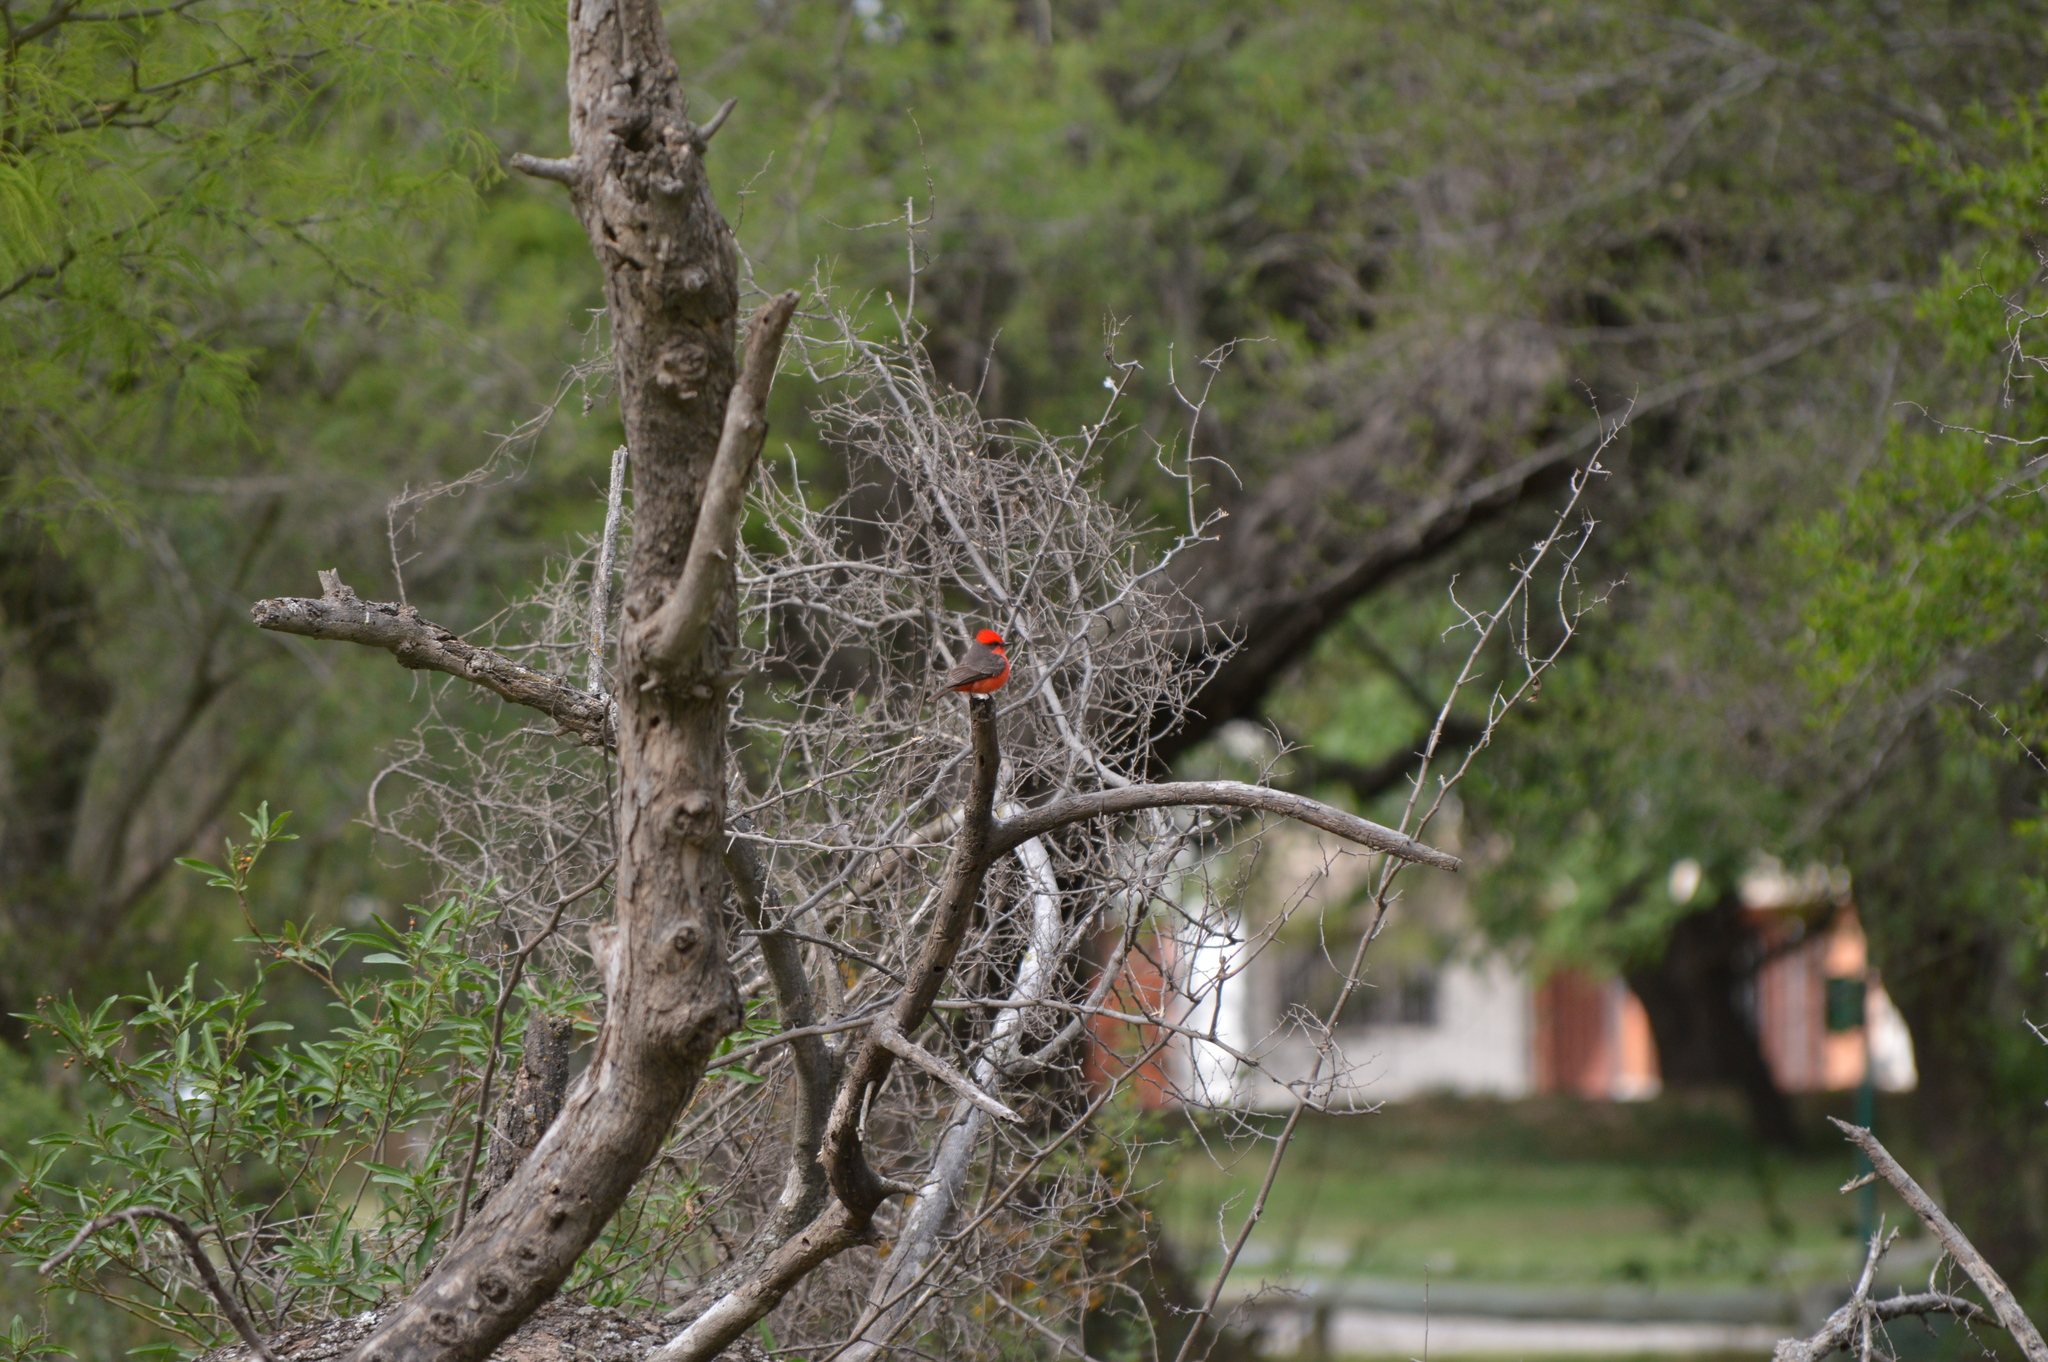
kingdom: Animalia
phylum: Chordata
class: Aves
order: Passeriformes
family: Tyrannidae
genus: Pyrocephalus
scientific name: Pyrocephalus rubinus
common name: Vermilion flycatcher
